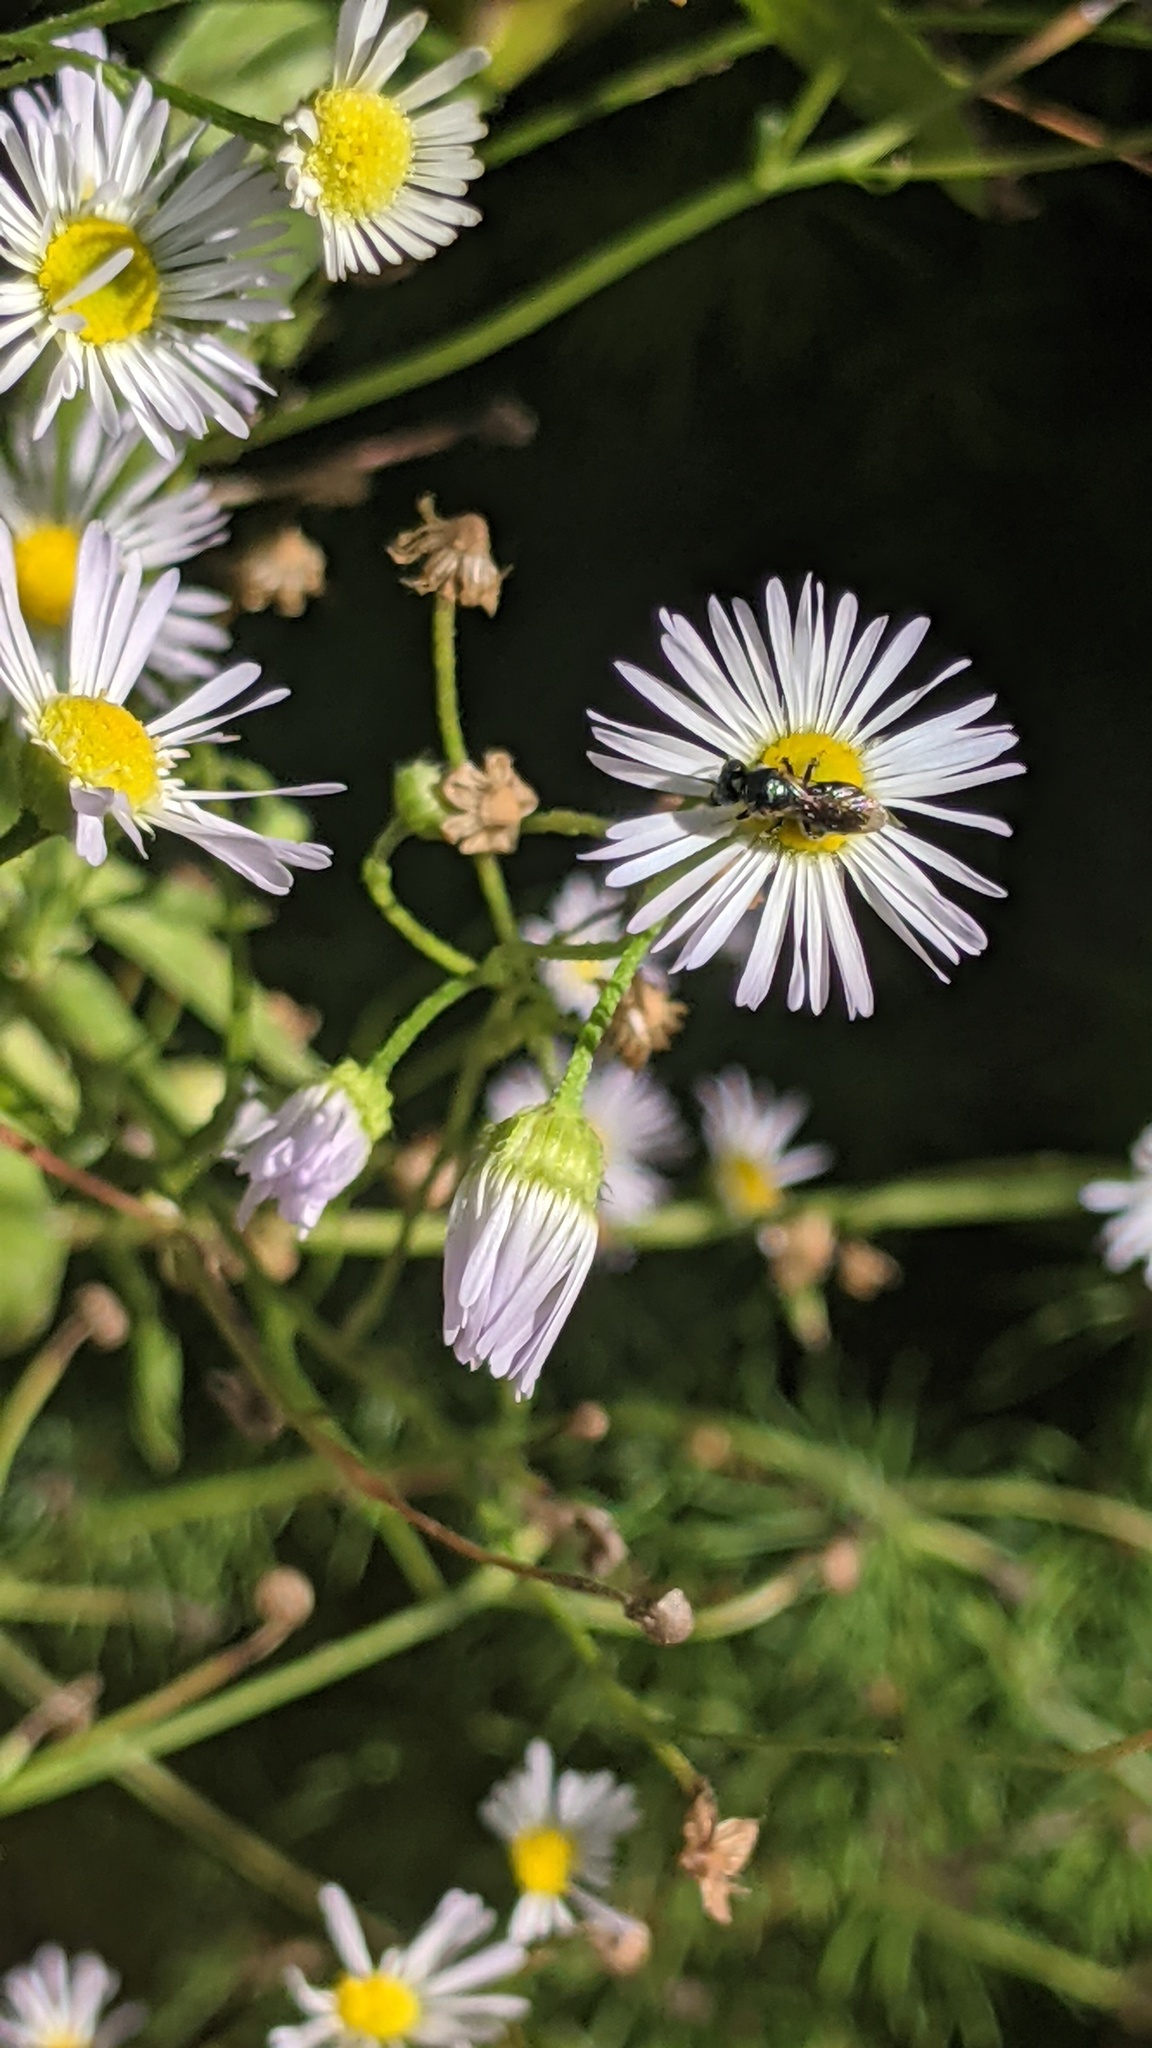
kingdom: Animalia
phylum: Arthropoda
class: Insecta
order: Hymenoptera
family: Apidae
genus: Zadontomerus
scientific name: Zadontomerus
